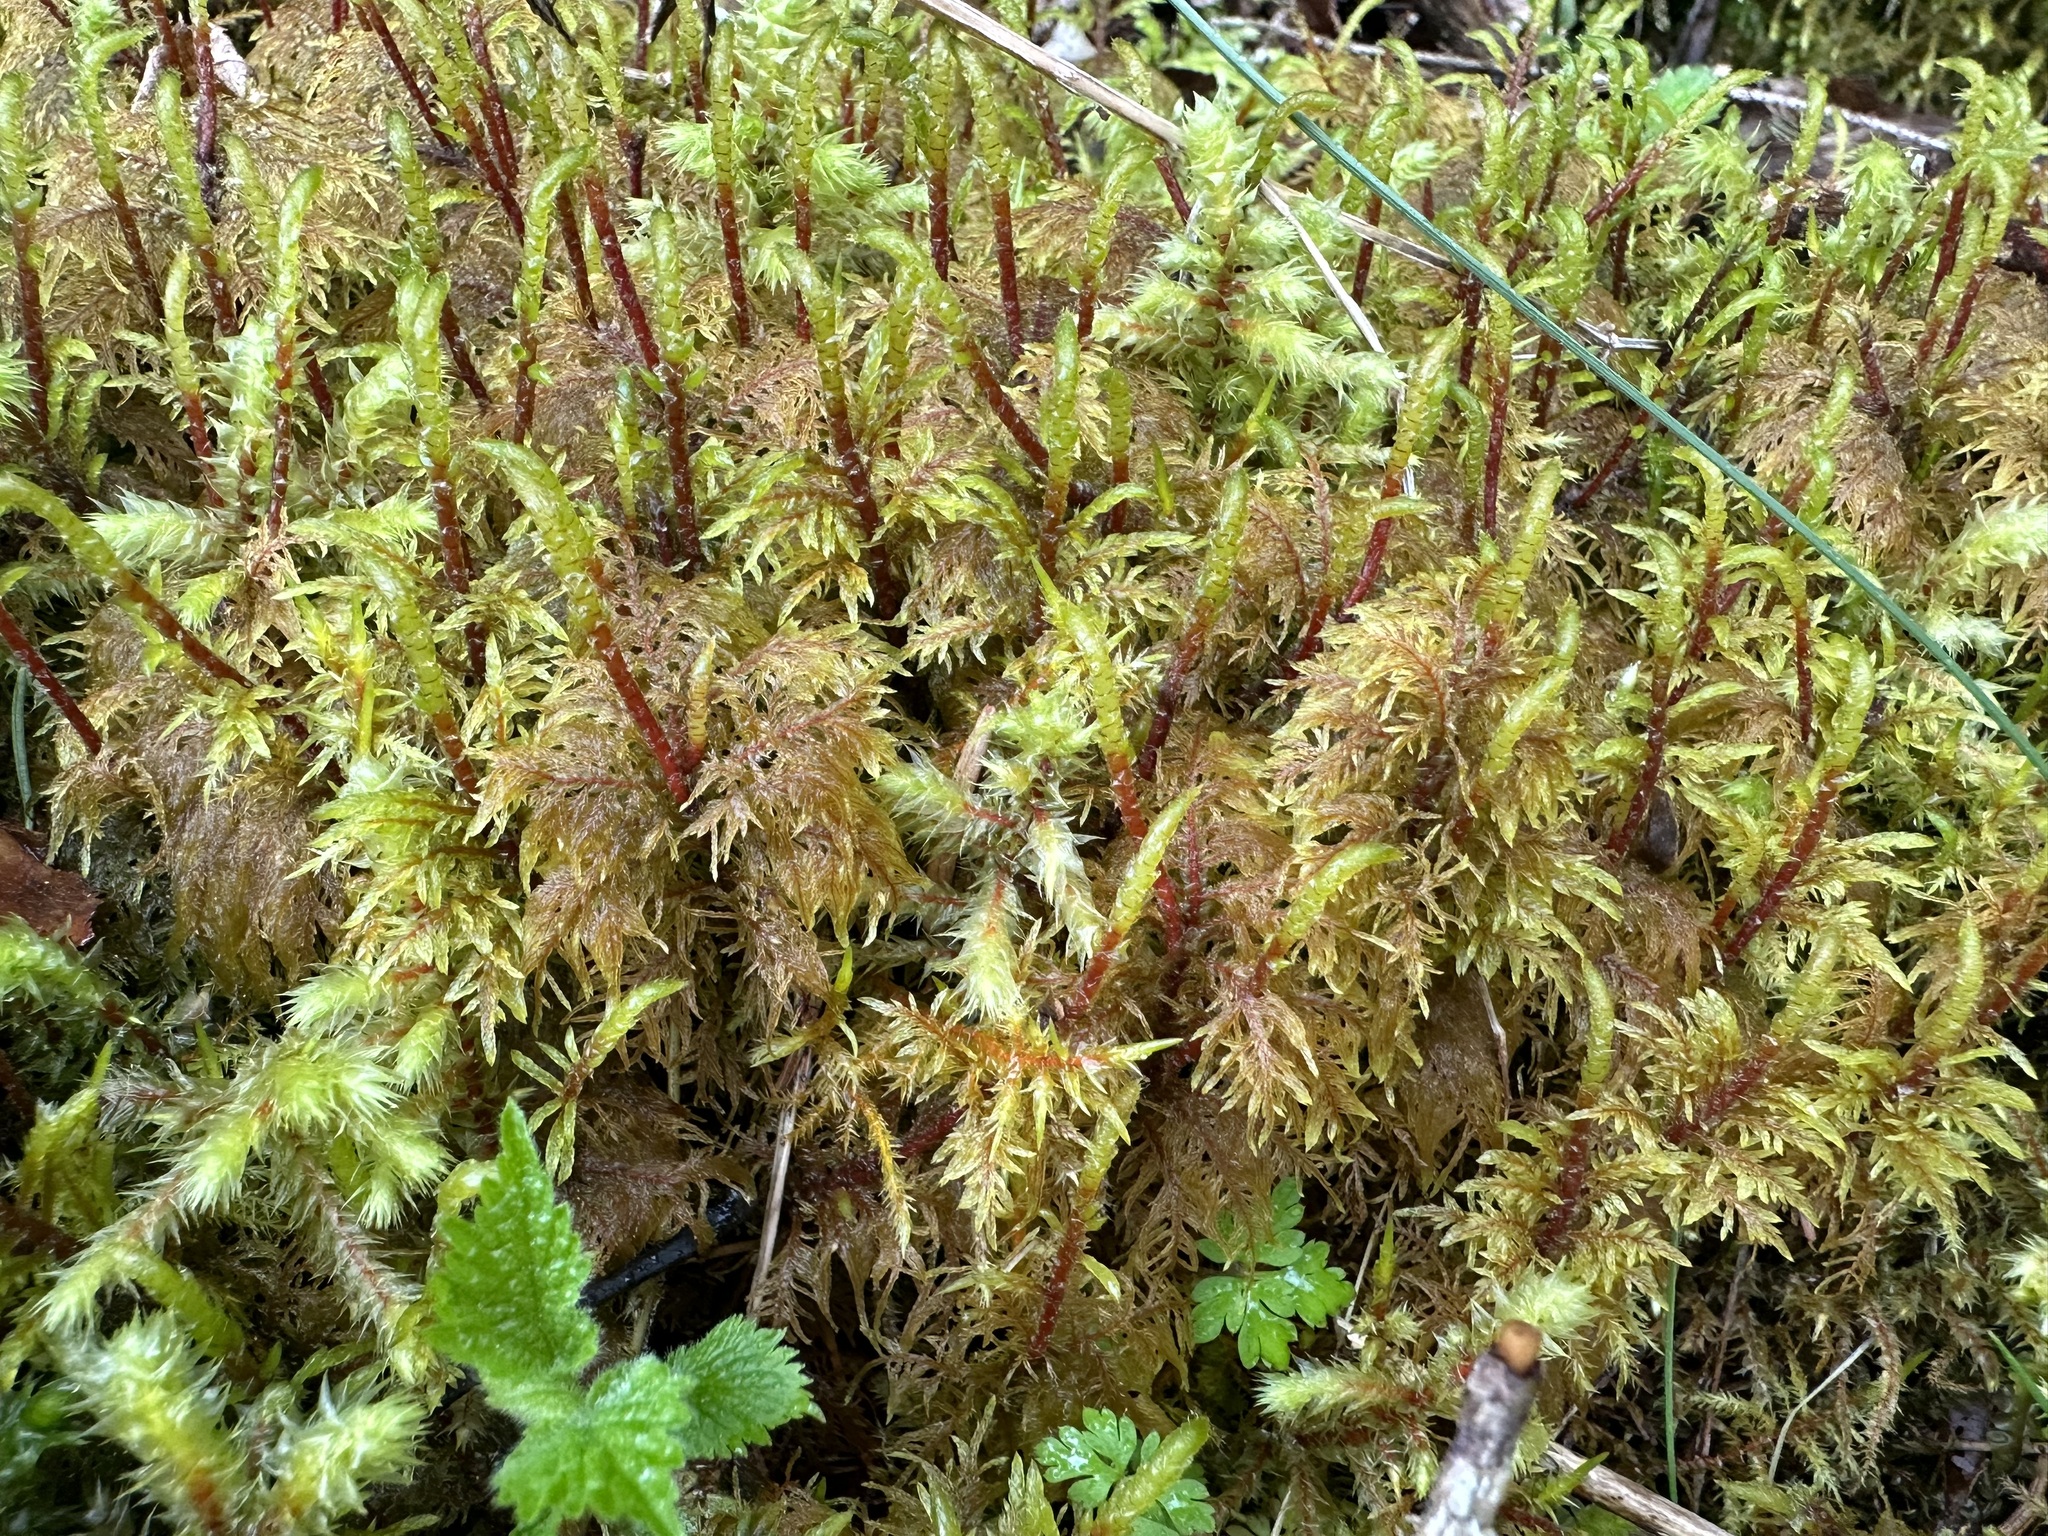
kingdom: Plantae
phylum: Bryophyta
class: Bryopsida
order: Hypnales
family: Hylocomiaceae
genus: Hylocomium
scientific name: Hylocomium splendens
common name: Stairstep moss
